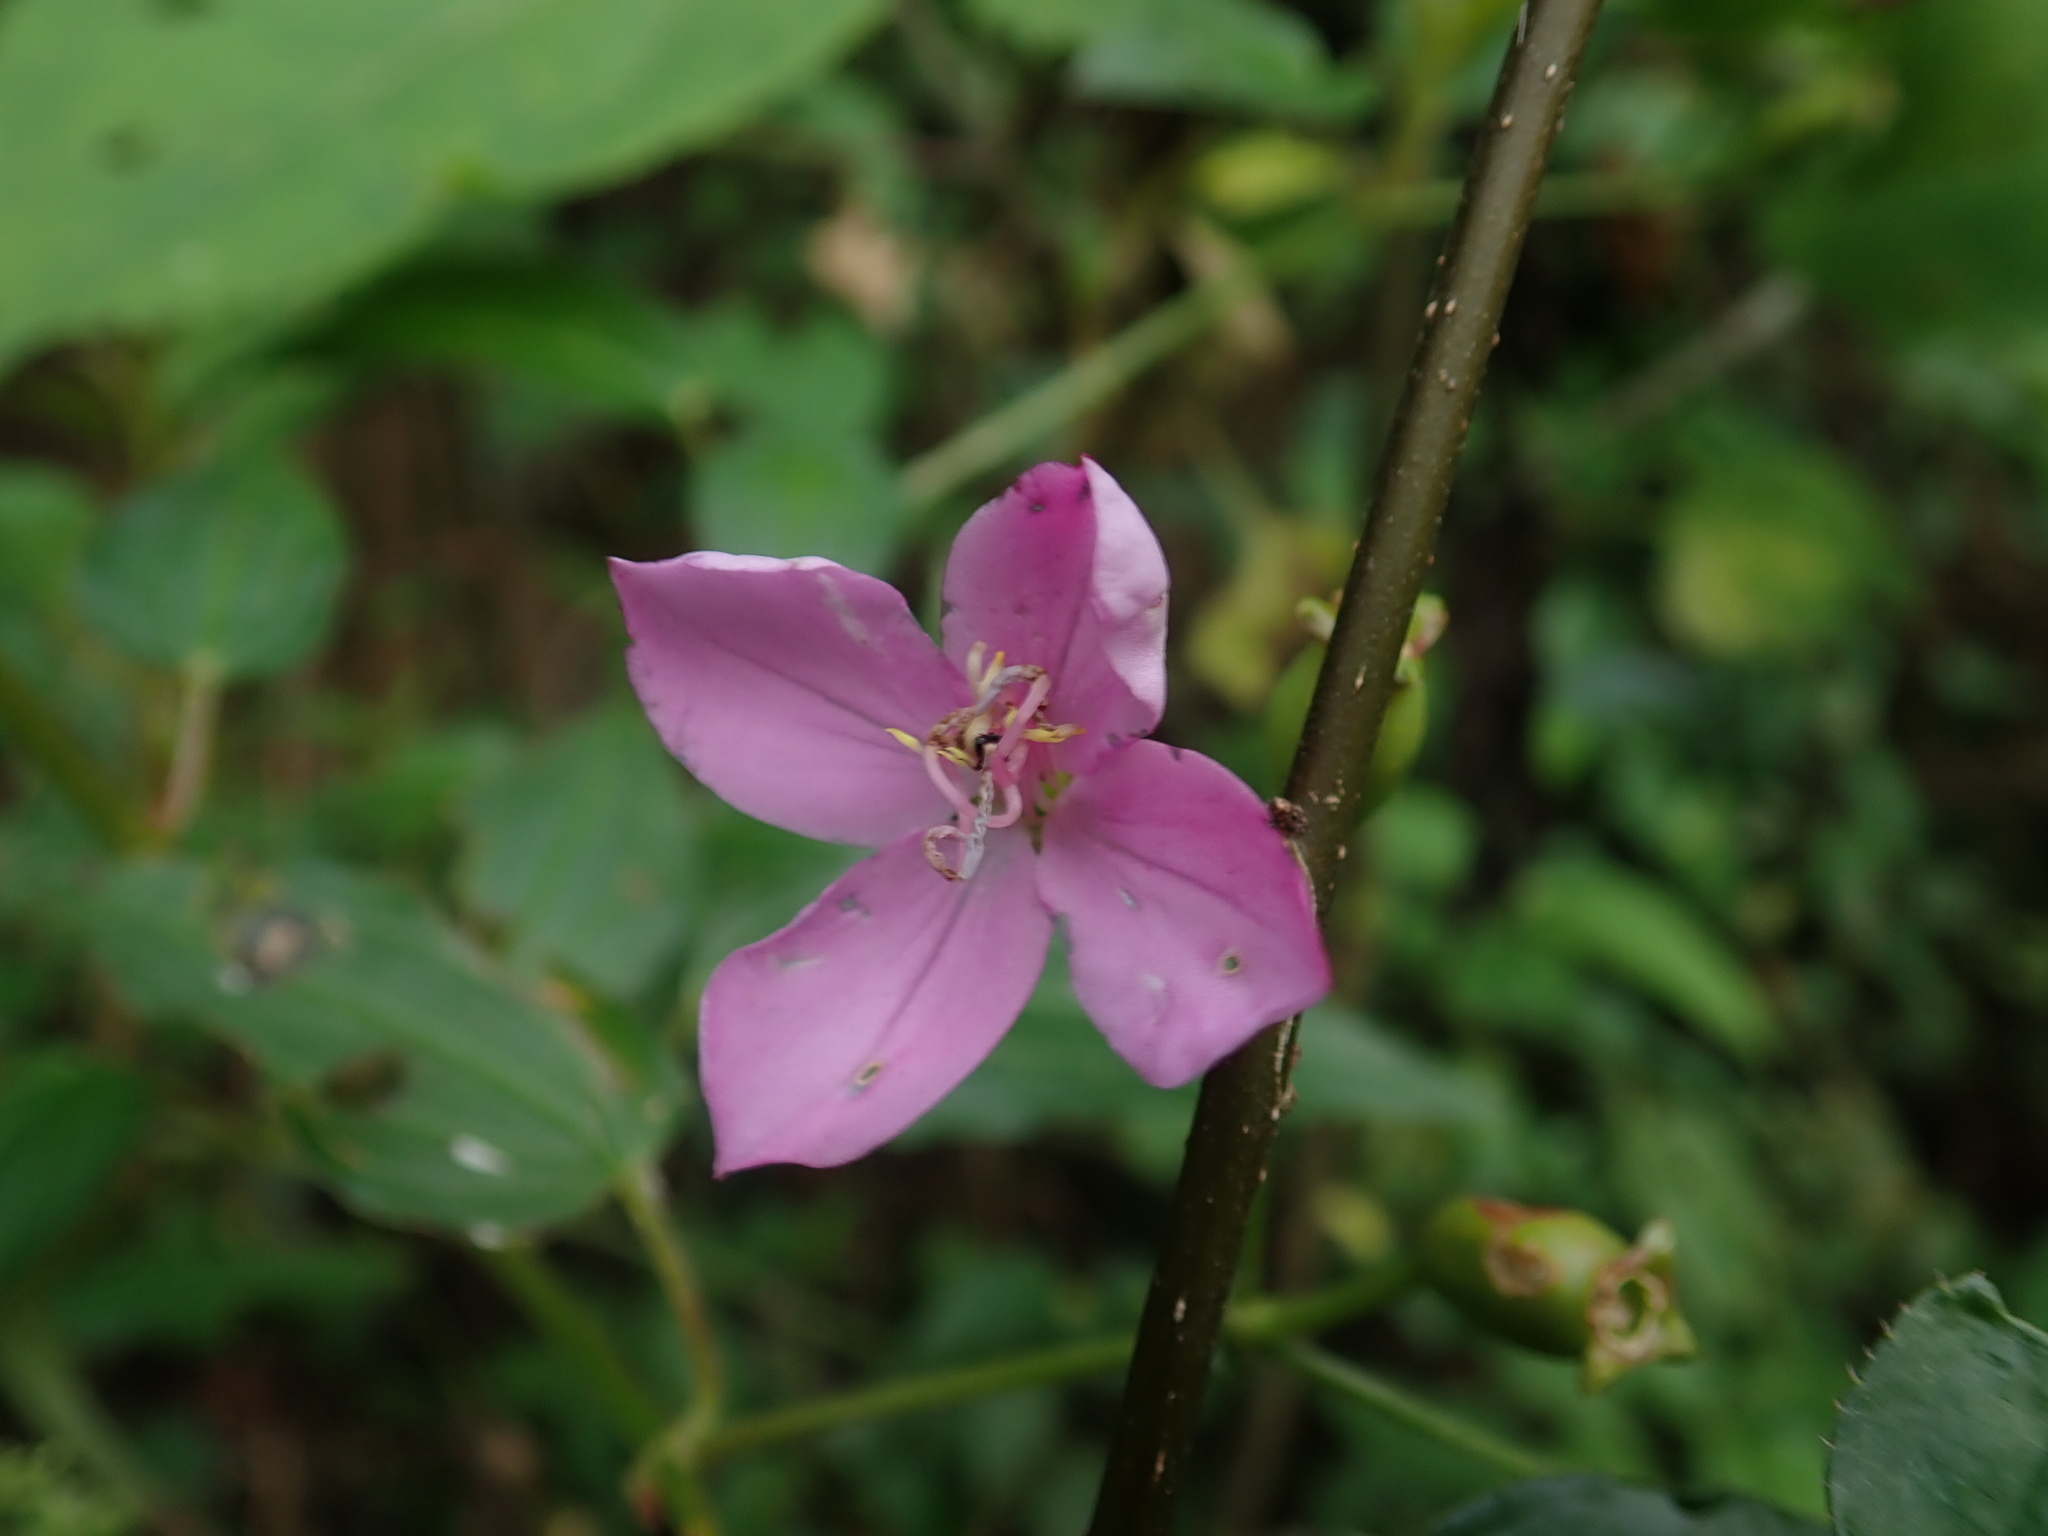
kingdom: Plantae
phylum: Tracheophyta
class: Magnoliopsida
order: Myrtales
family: Melastomataceae
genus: Arthrostemma
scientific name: Arthrostemma ciliatum
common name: Everblooming eavender
